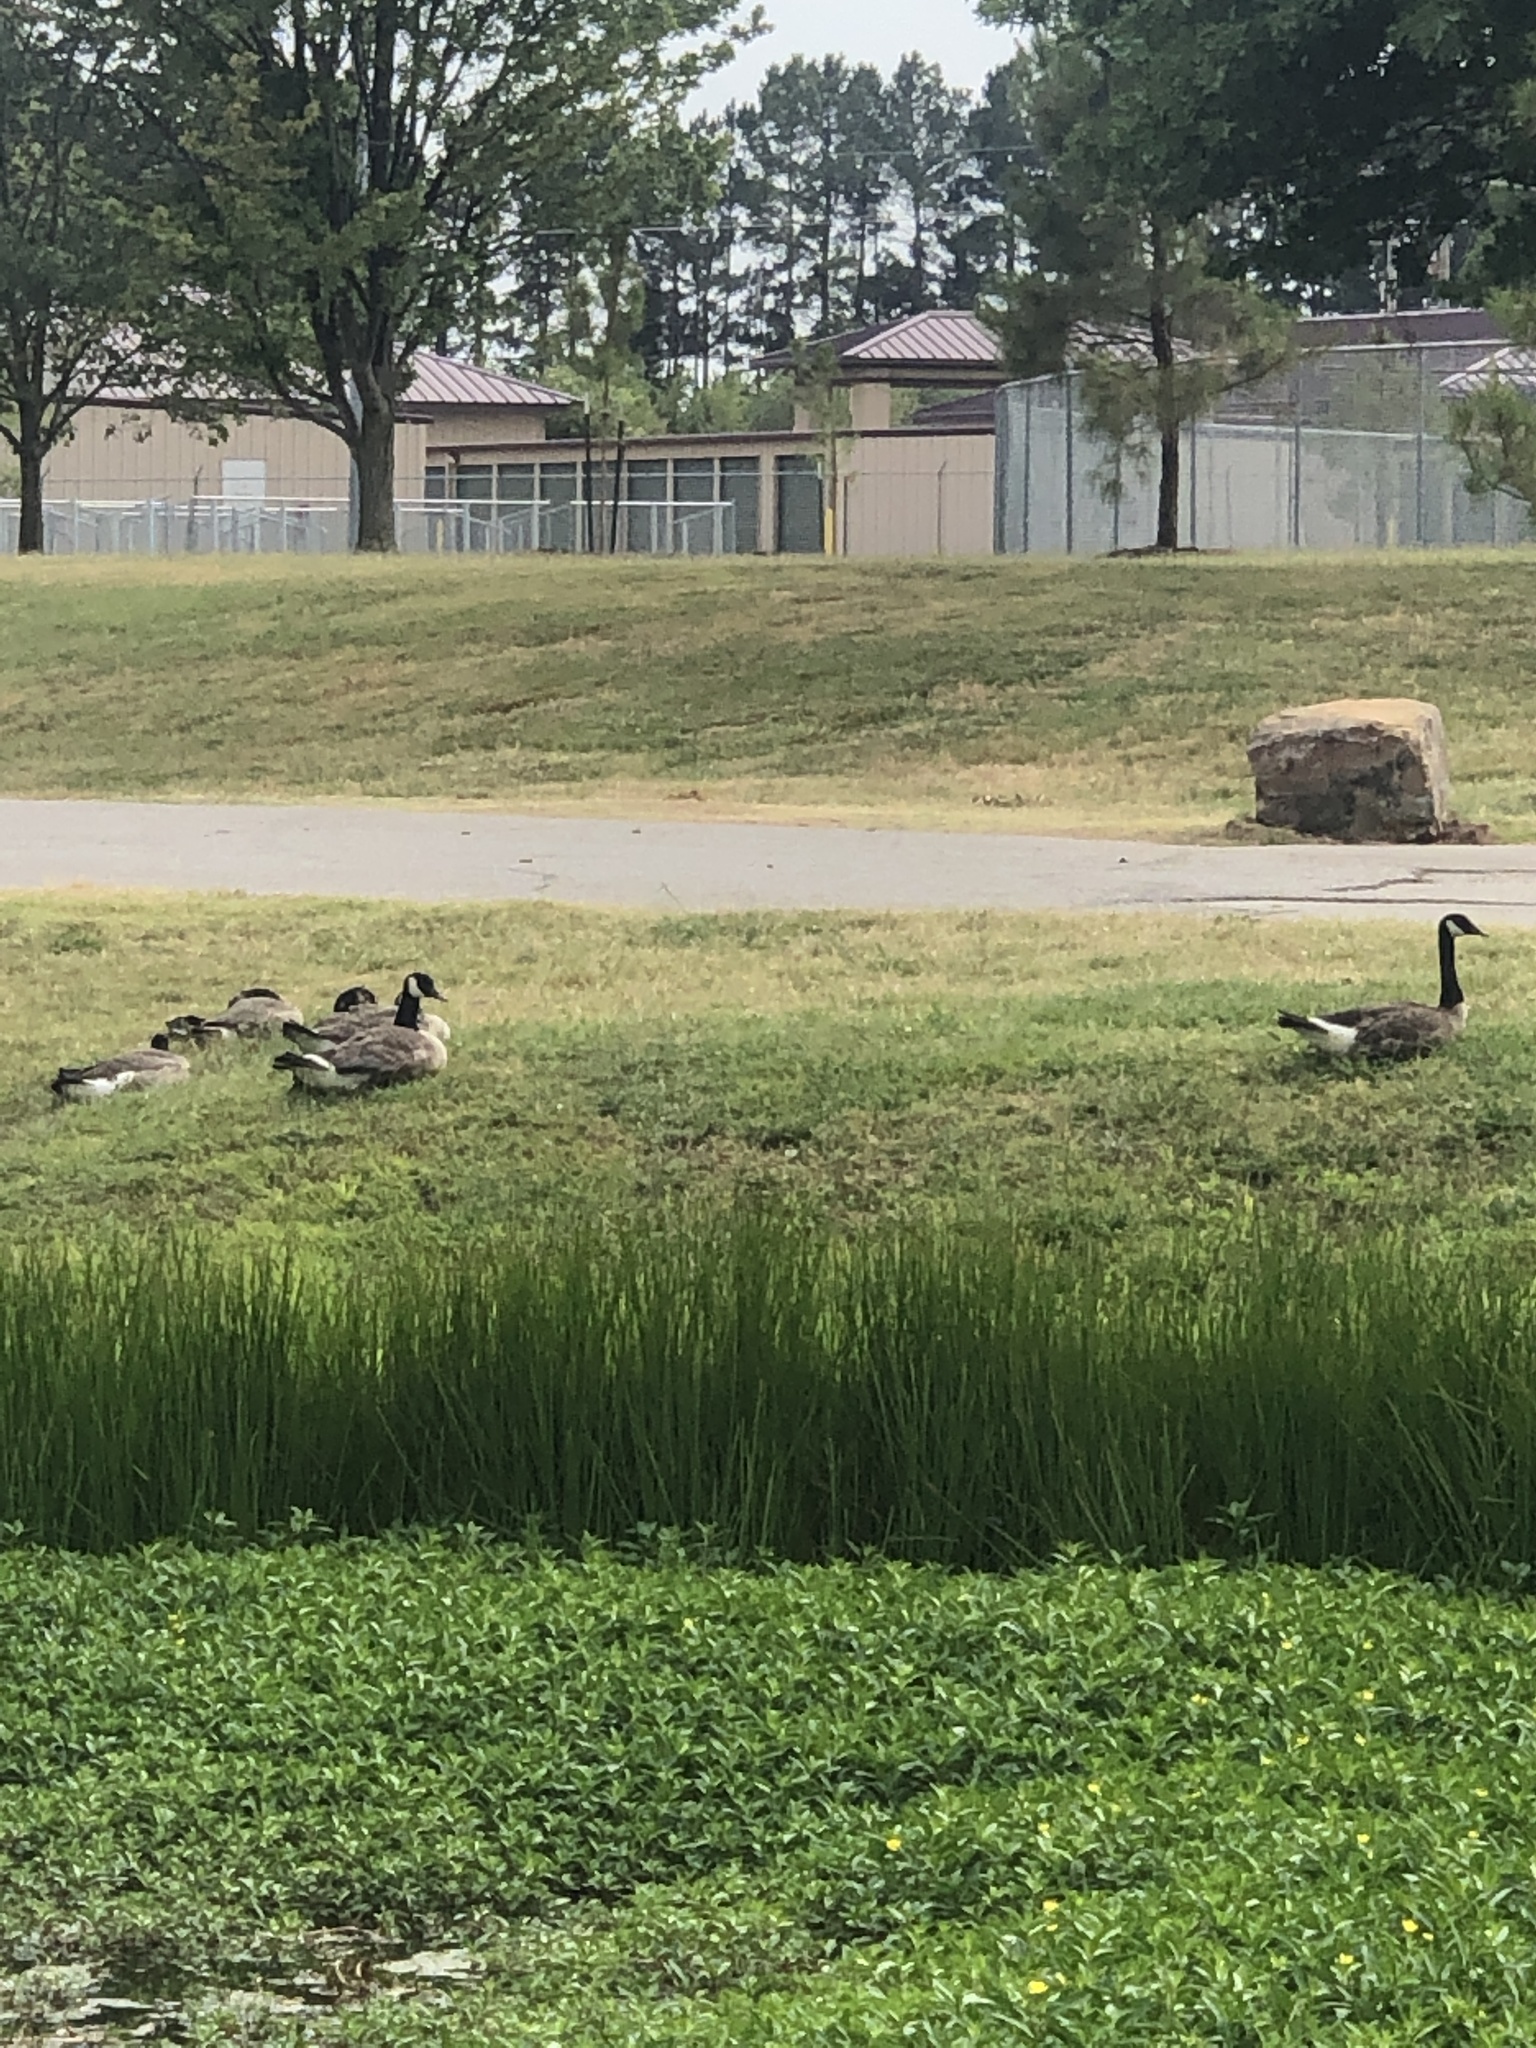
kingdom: Animalia
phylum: Chordata
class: Aves
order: Anseriformes
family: Anatidae
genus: Branta
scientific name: Branta canadensis
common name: Canada goose
